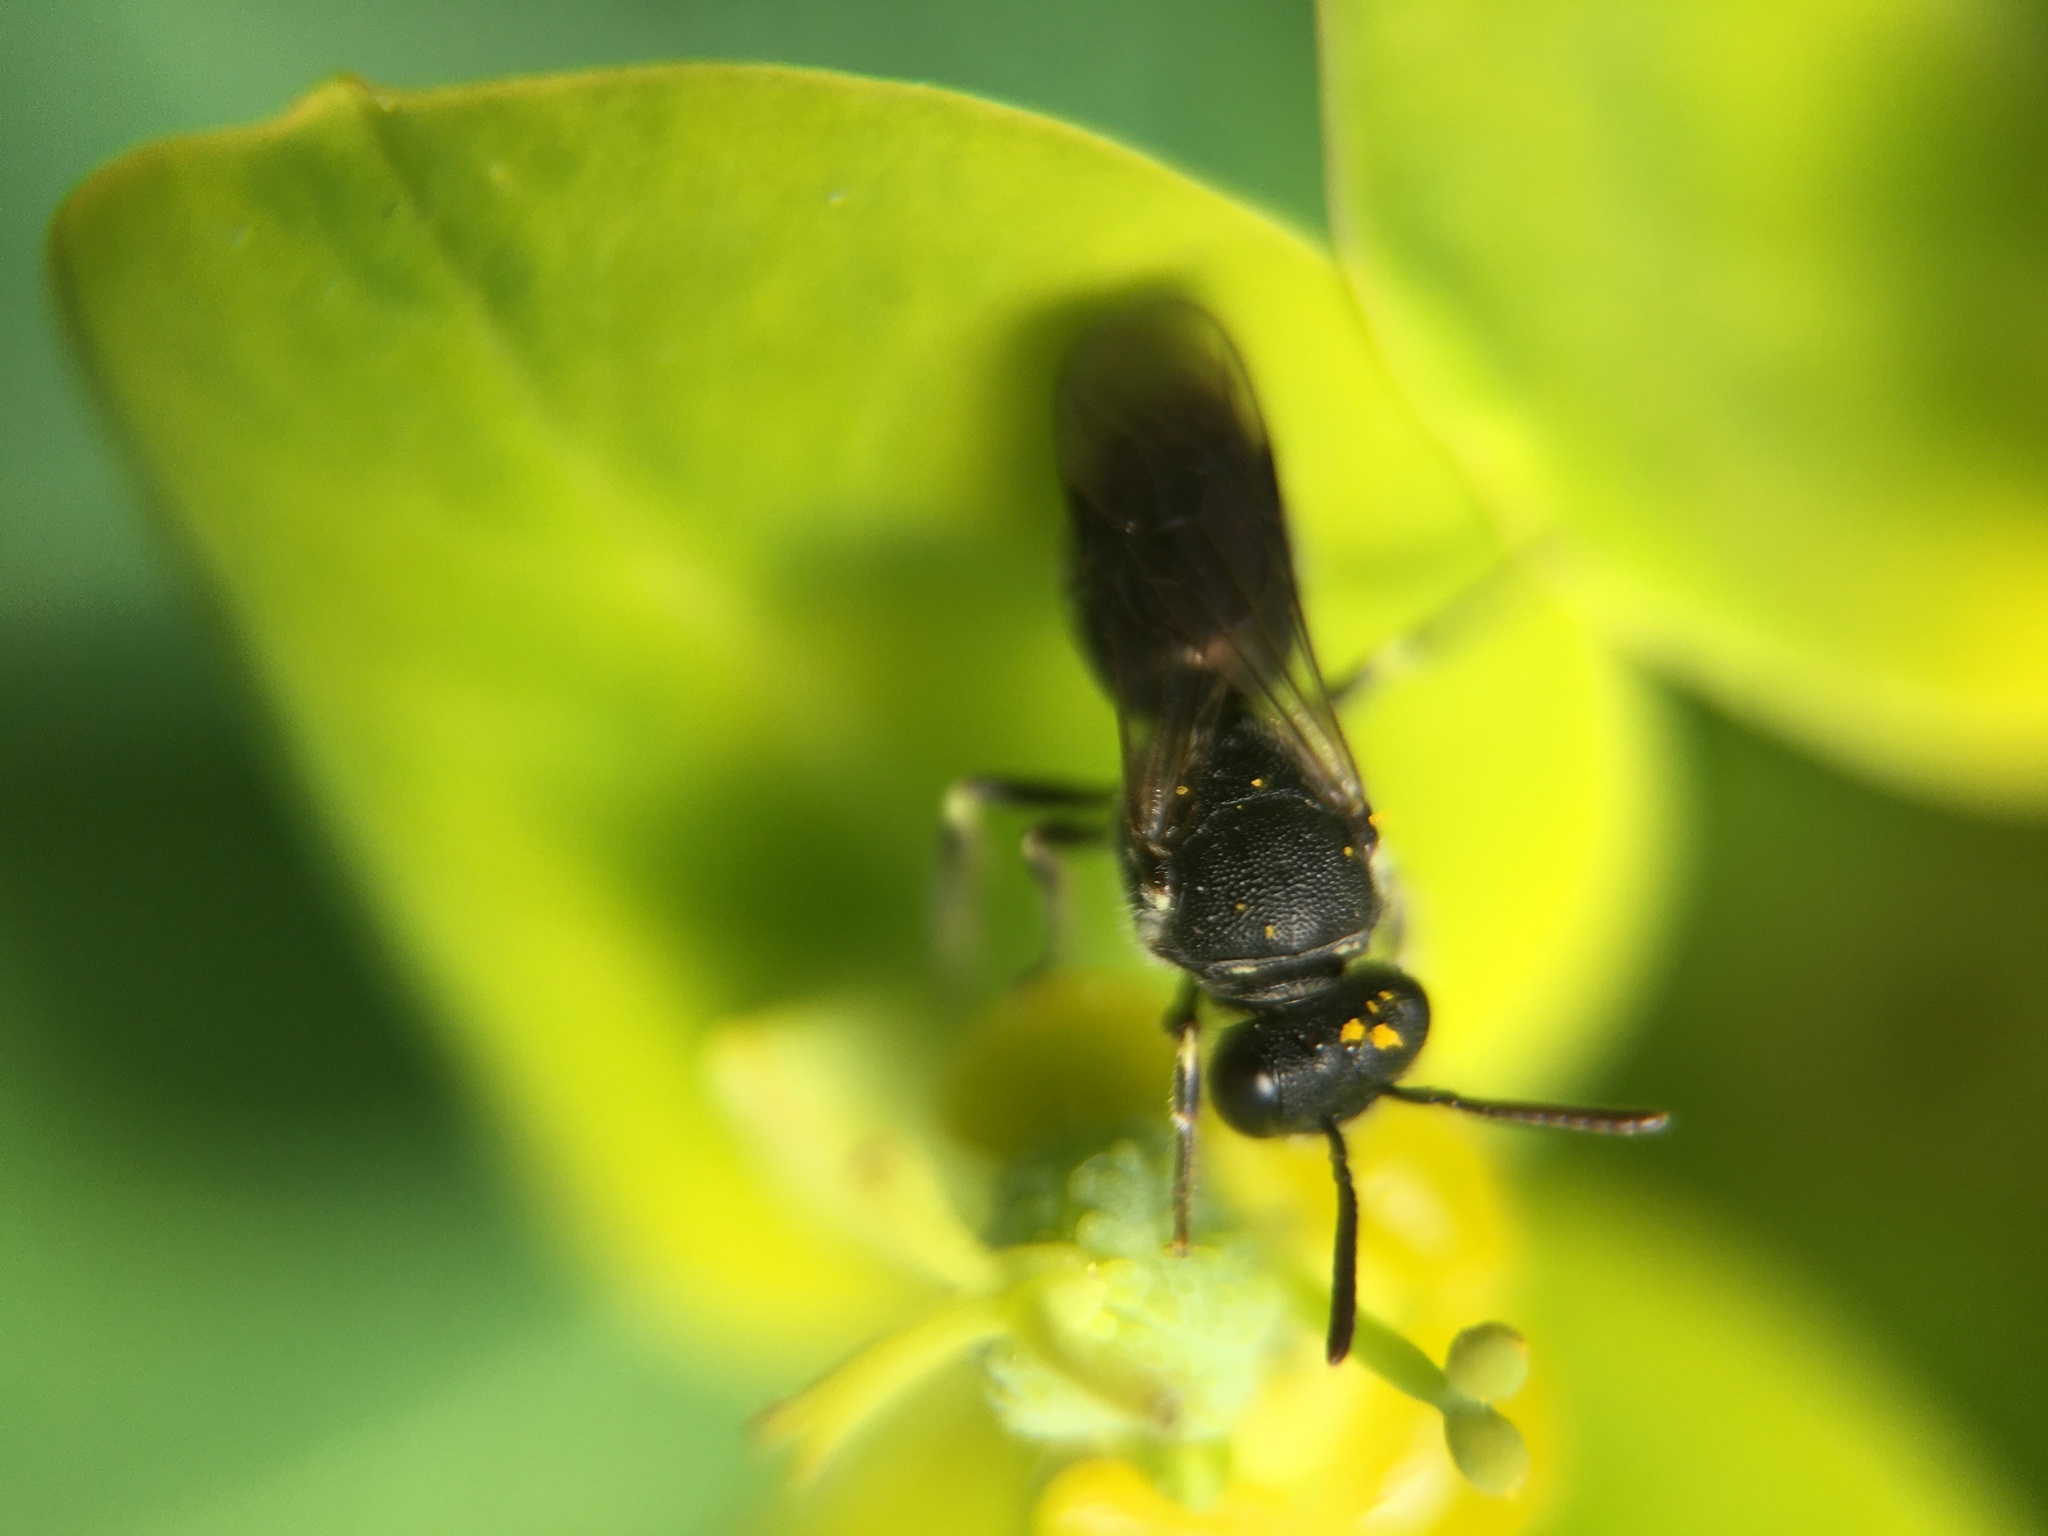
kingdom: Animalia
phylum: Arthropoda
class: Insecta
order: Hymenoptera
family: Colletidae
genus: Hylaeus
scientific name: Hylaeus
